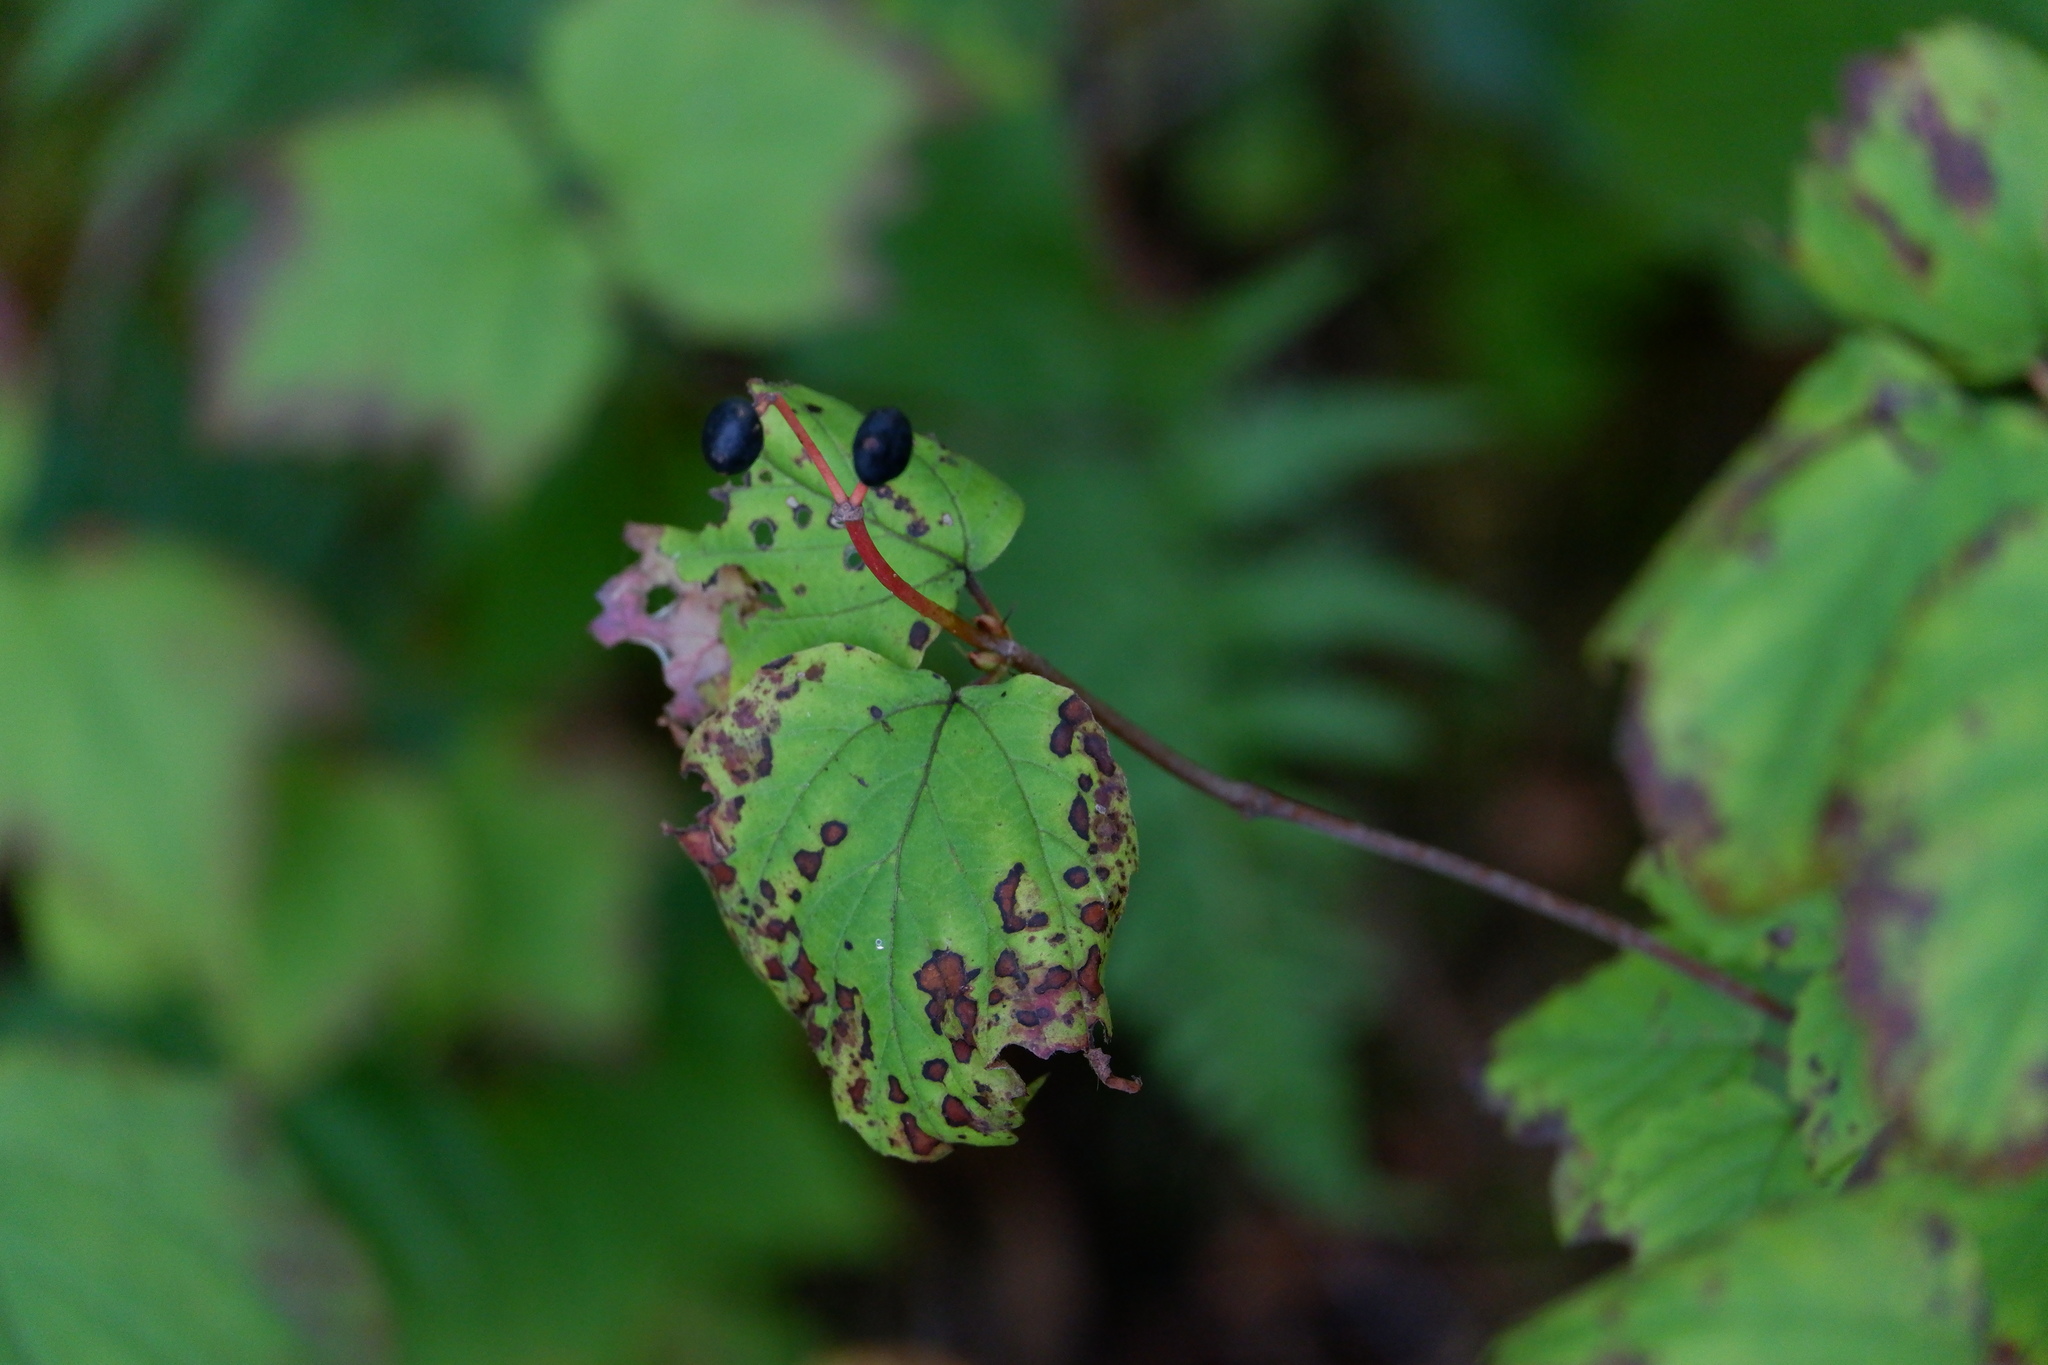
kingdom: Plantae
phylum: Tracheophyta
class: Magnoliopsida
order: Dipsacales
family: Viburnaceae
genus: Viburnum
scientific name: Viburnum acerifolium
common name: Dockmackie
